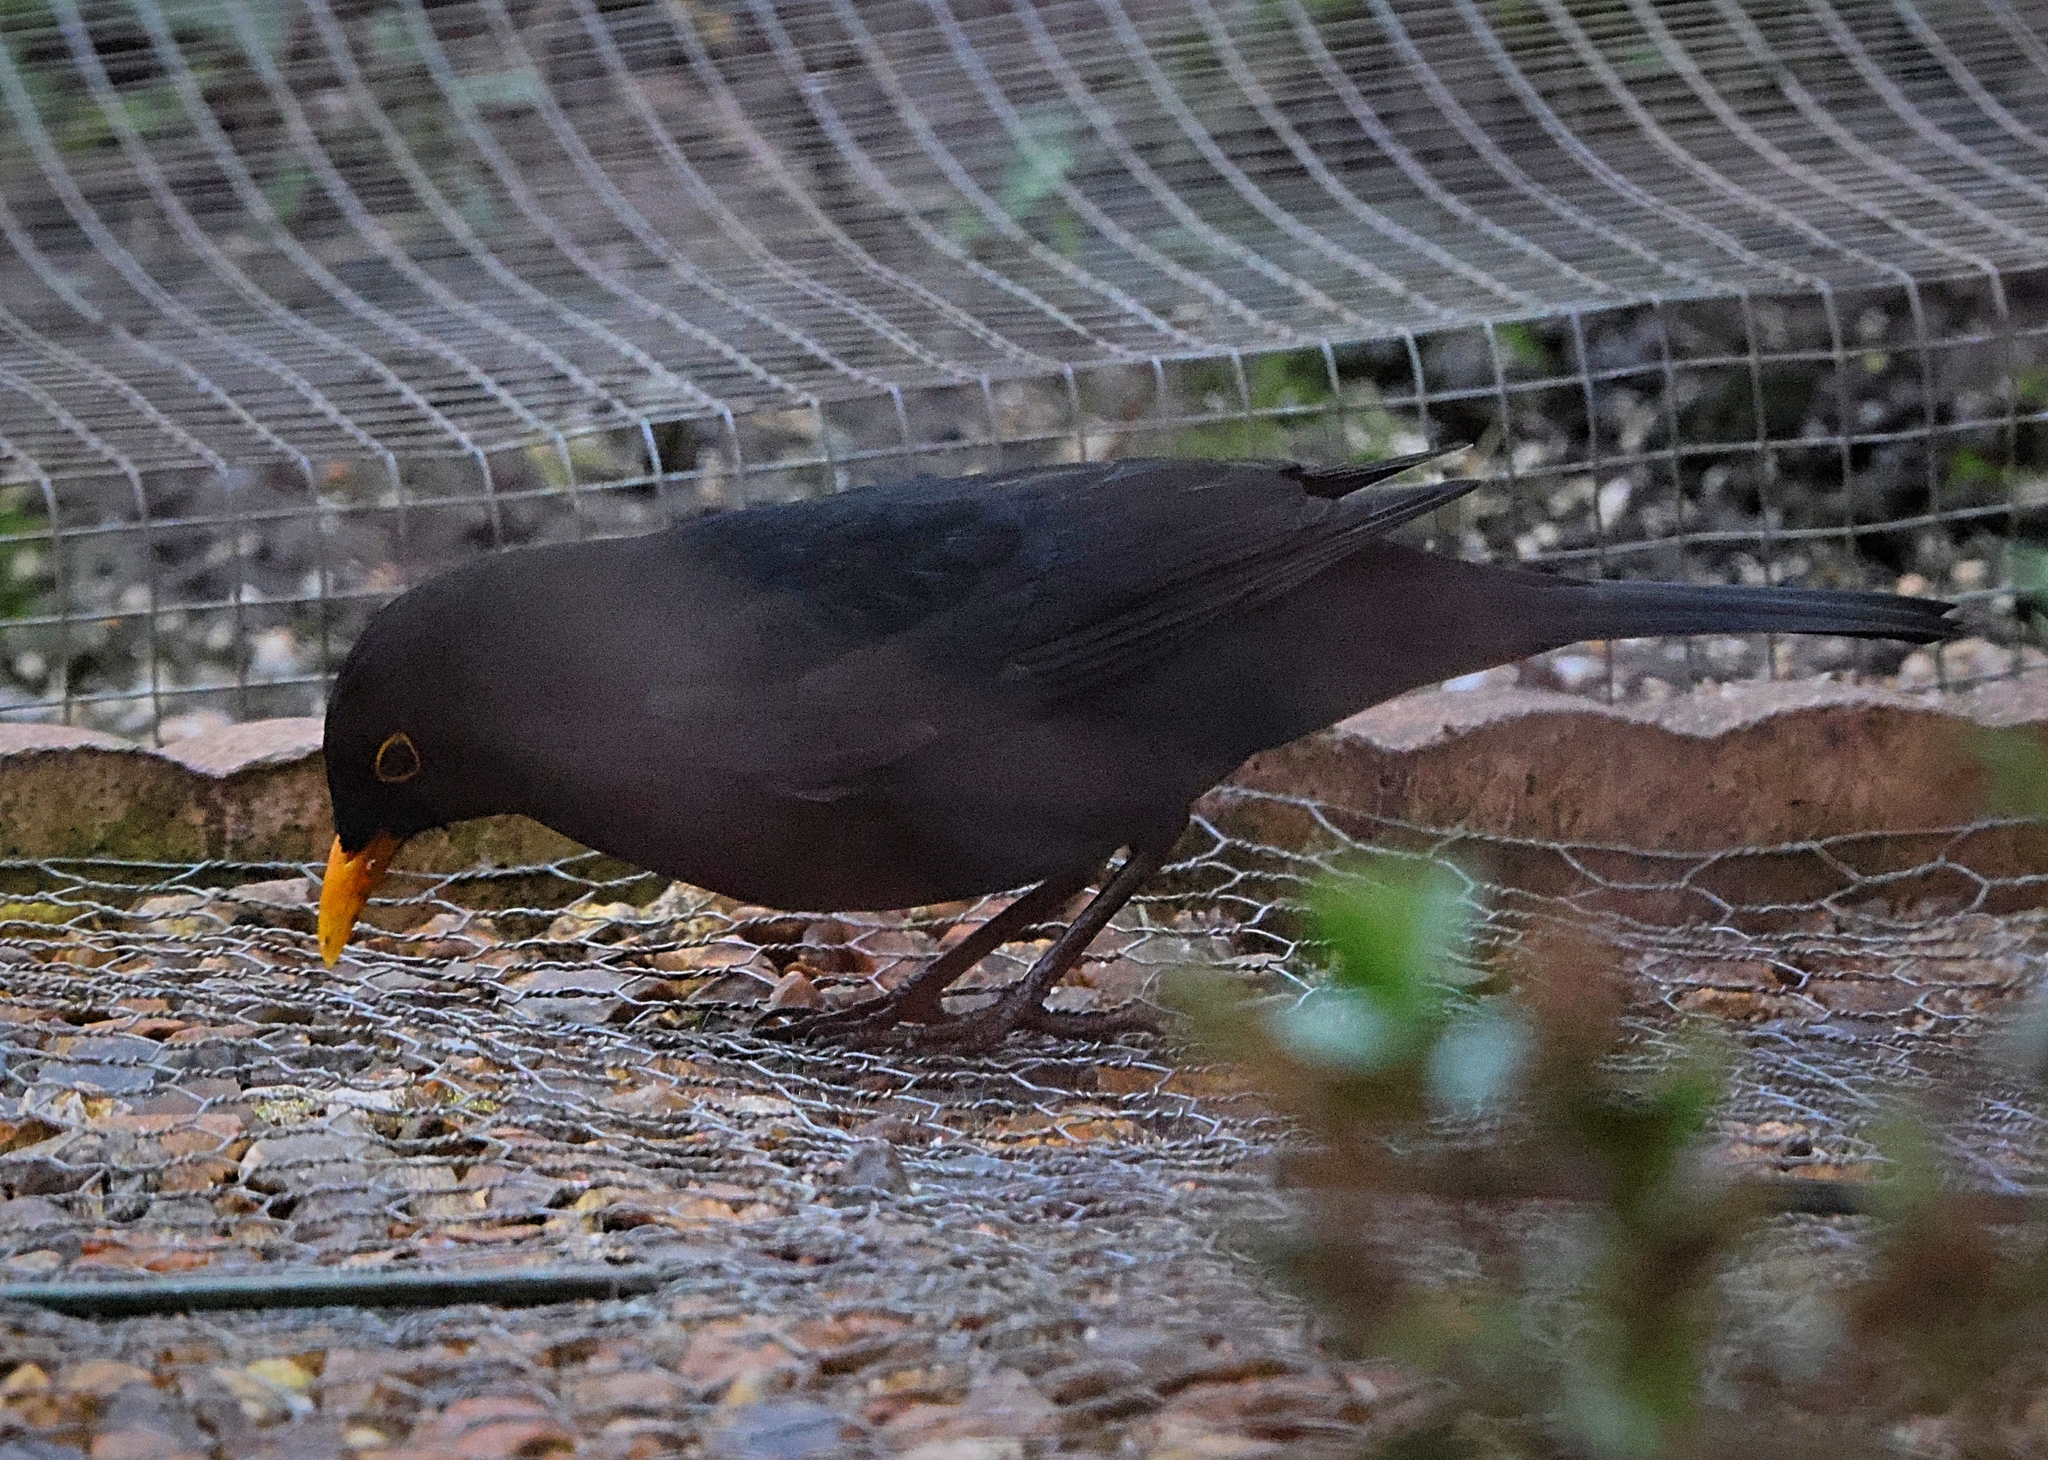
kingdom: Animalia
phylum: Chordata
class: Aves
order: Passeriformes
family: Turdidae
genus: Turdus
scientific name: Turdus merula
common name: Common blackbird
